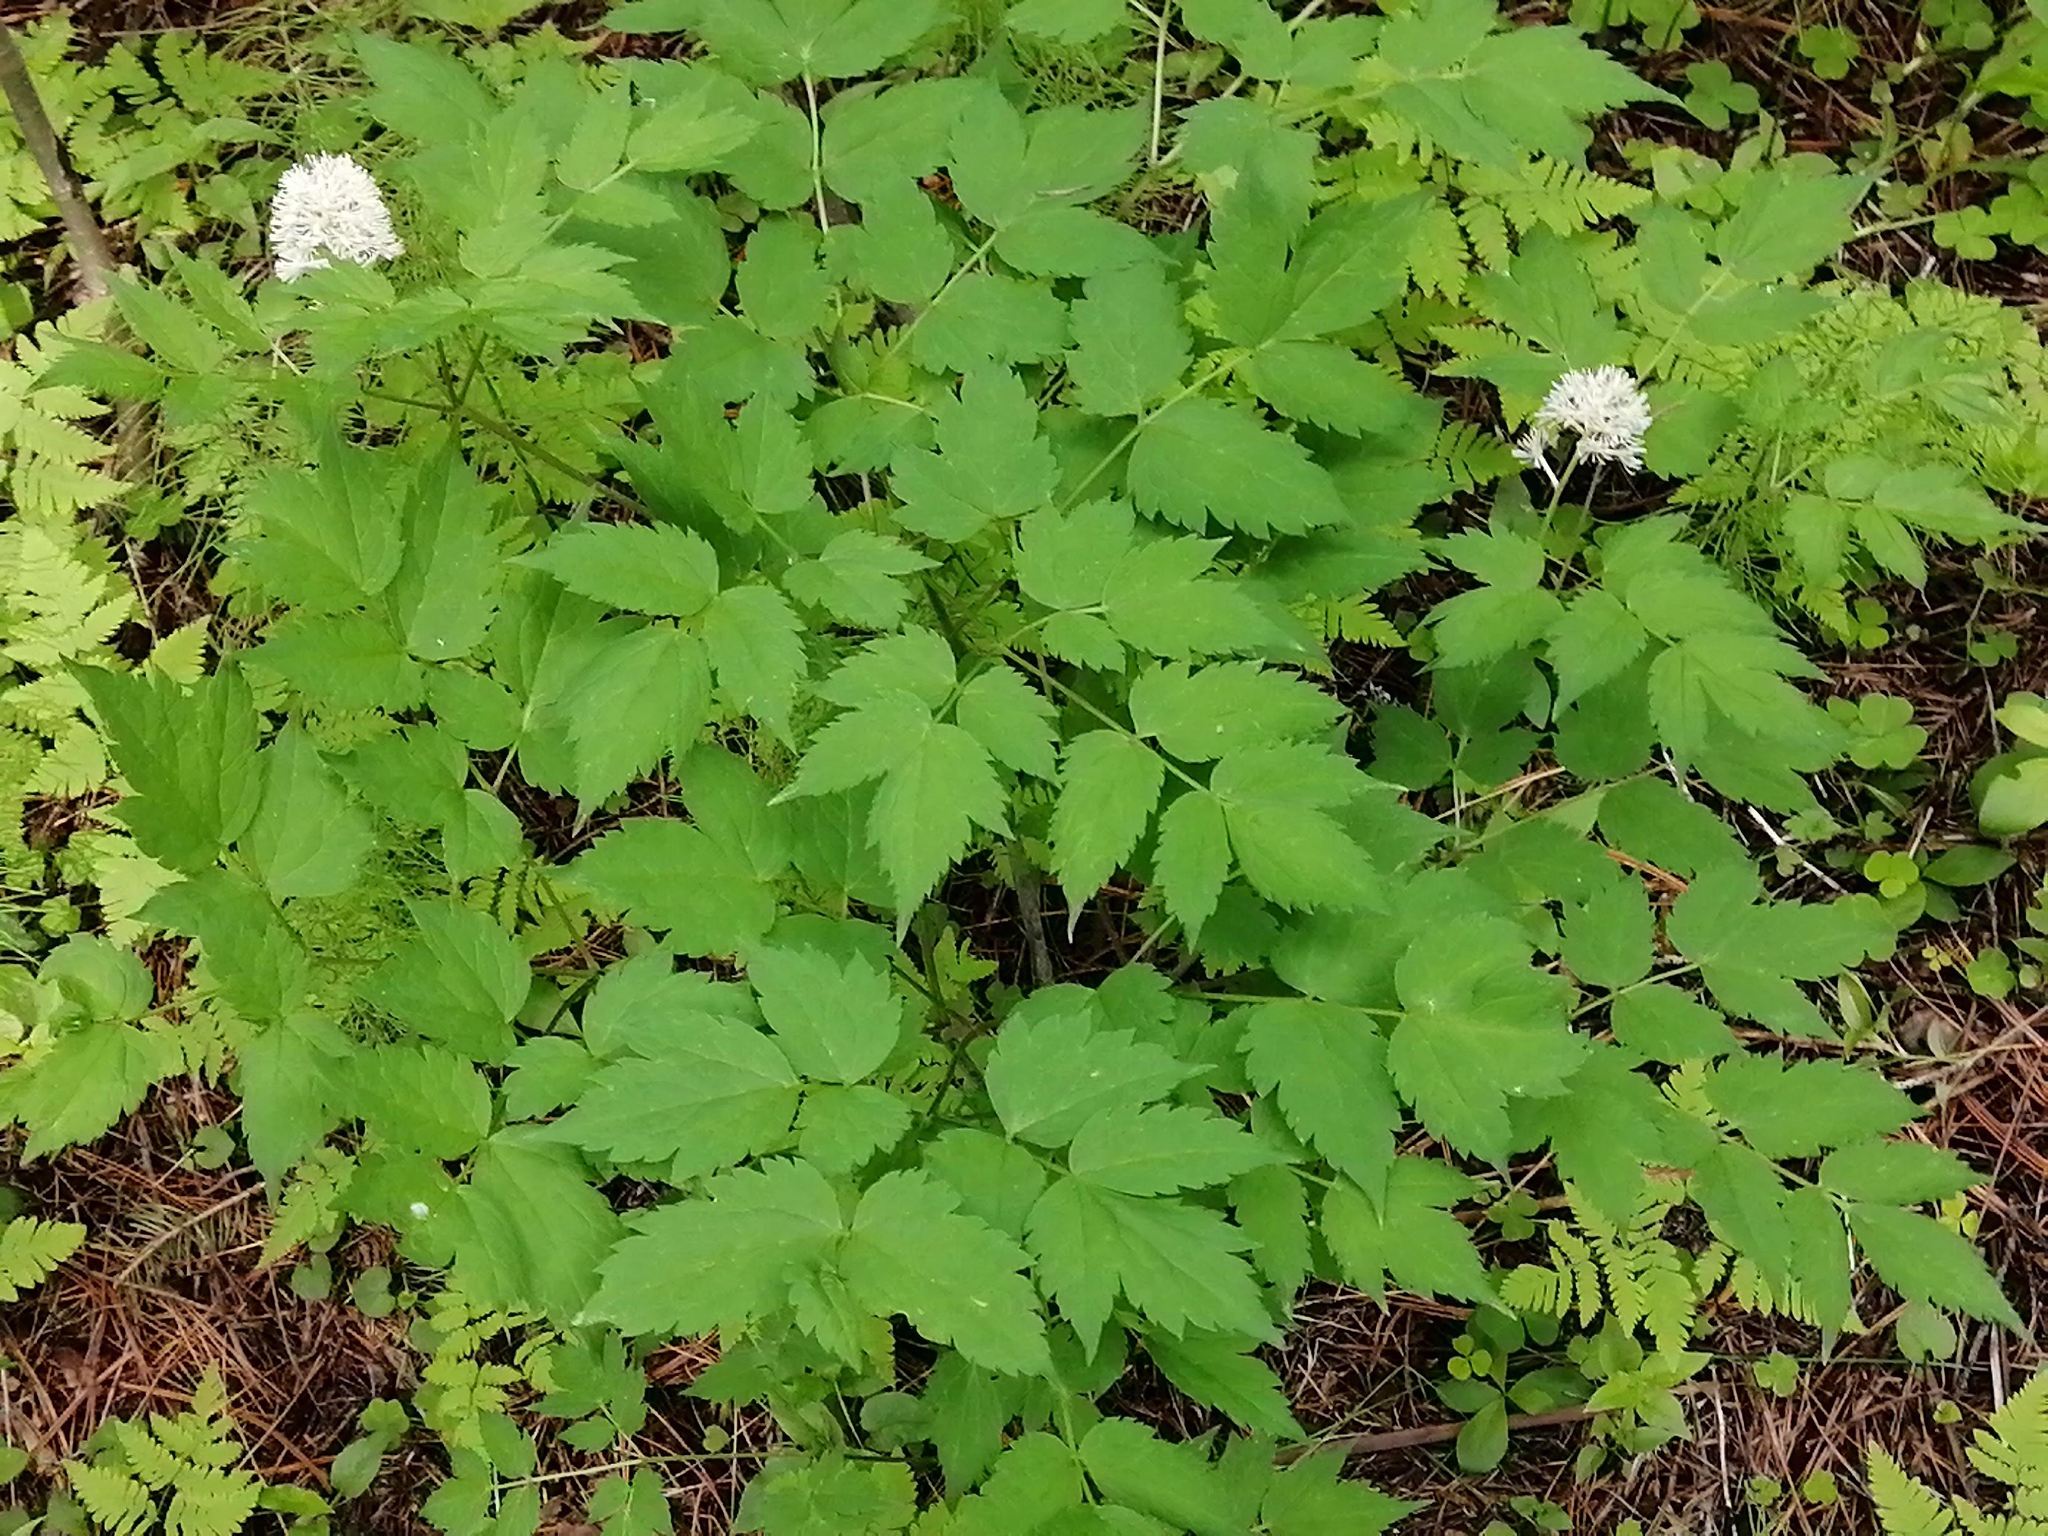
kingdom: Plantae
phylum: Tracheophyta
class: Magnoliopsida
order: Ranunculales
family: Ranunculaceae
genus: Actaea
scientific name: Actaea spicata
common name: Baneberry
